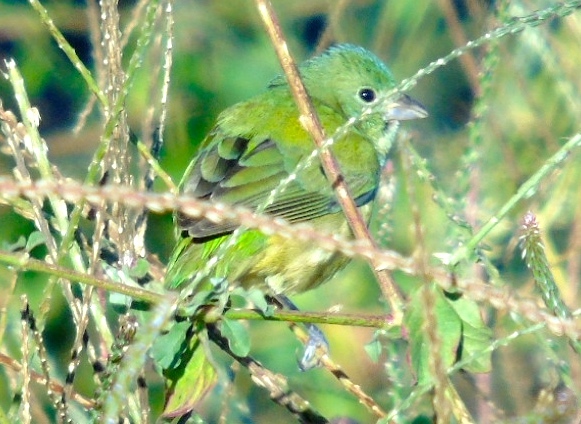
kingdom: Animalia
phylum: Chordata
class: Aves
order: Passeriformes
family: Cardinalidae
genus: Passerina
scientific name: Passerina ciris
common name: Painted bunting
